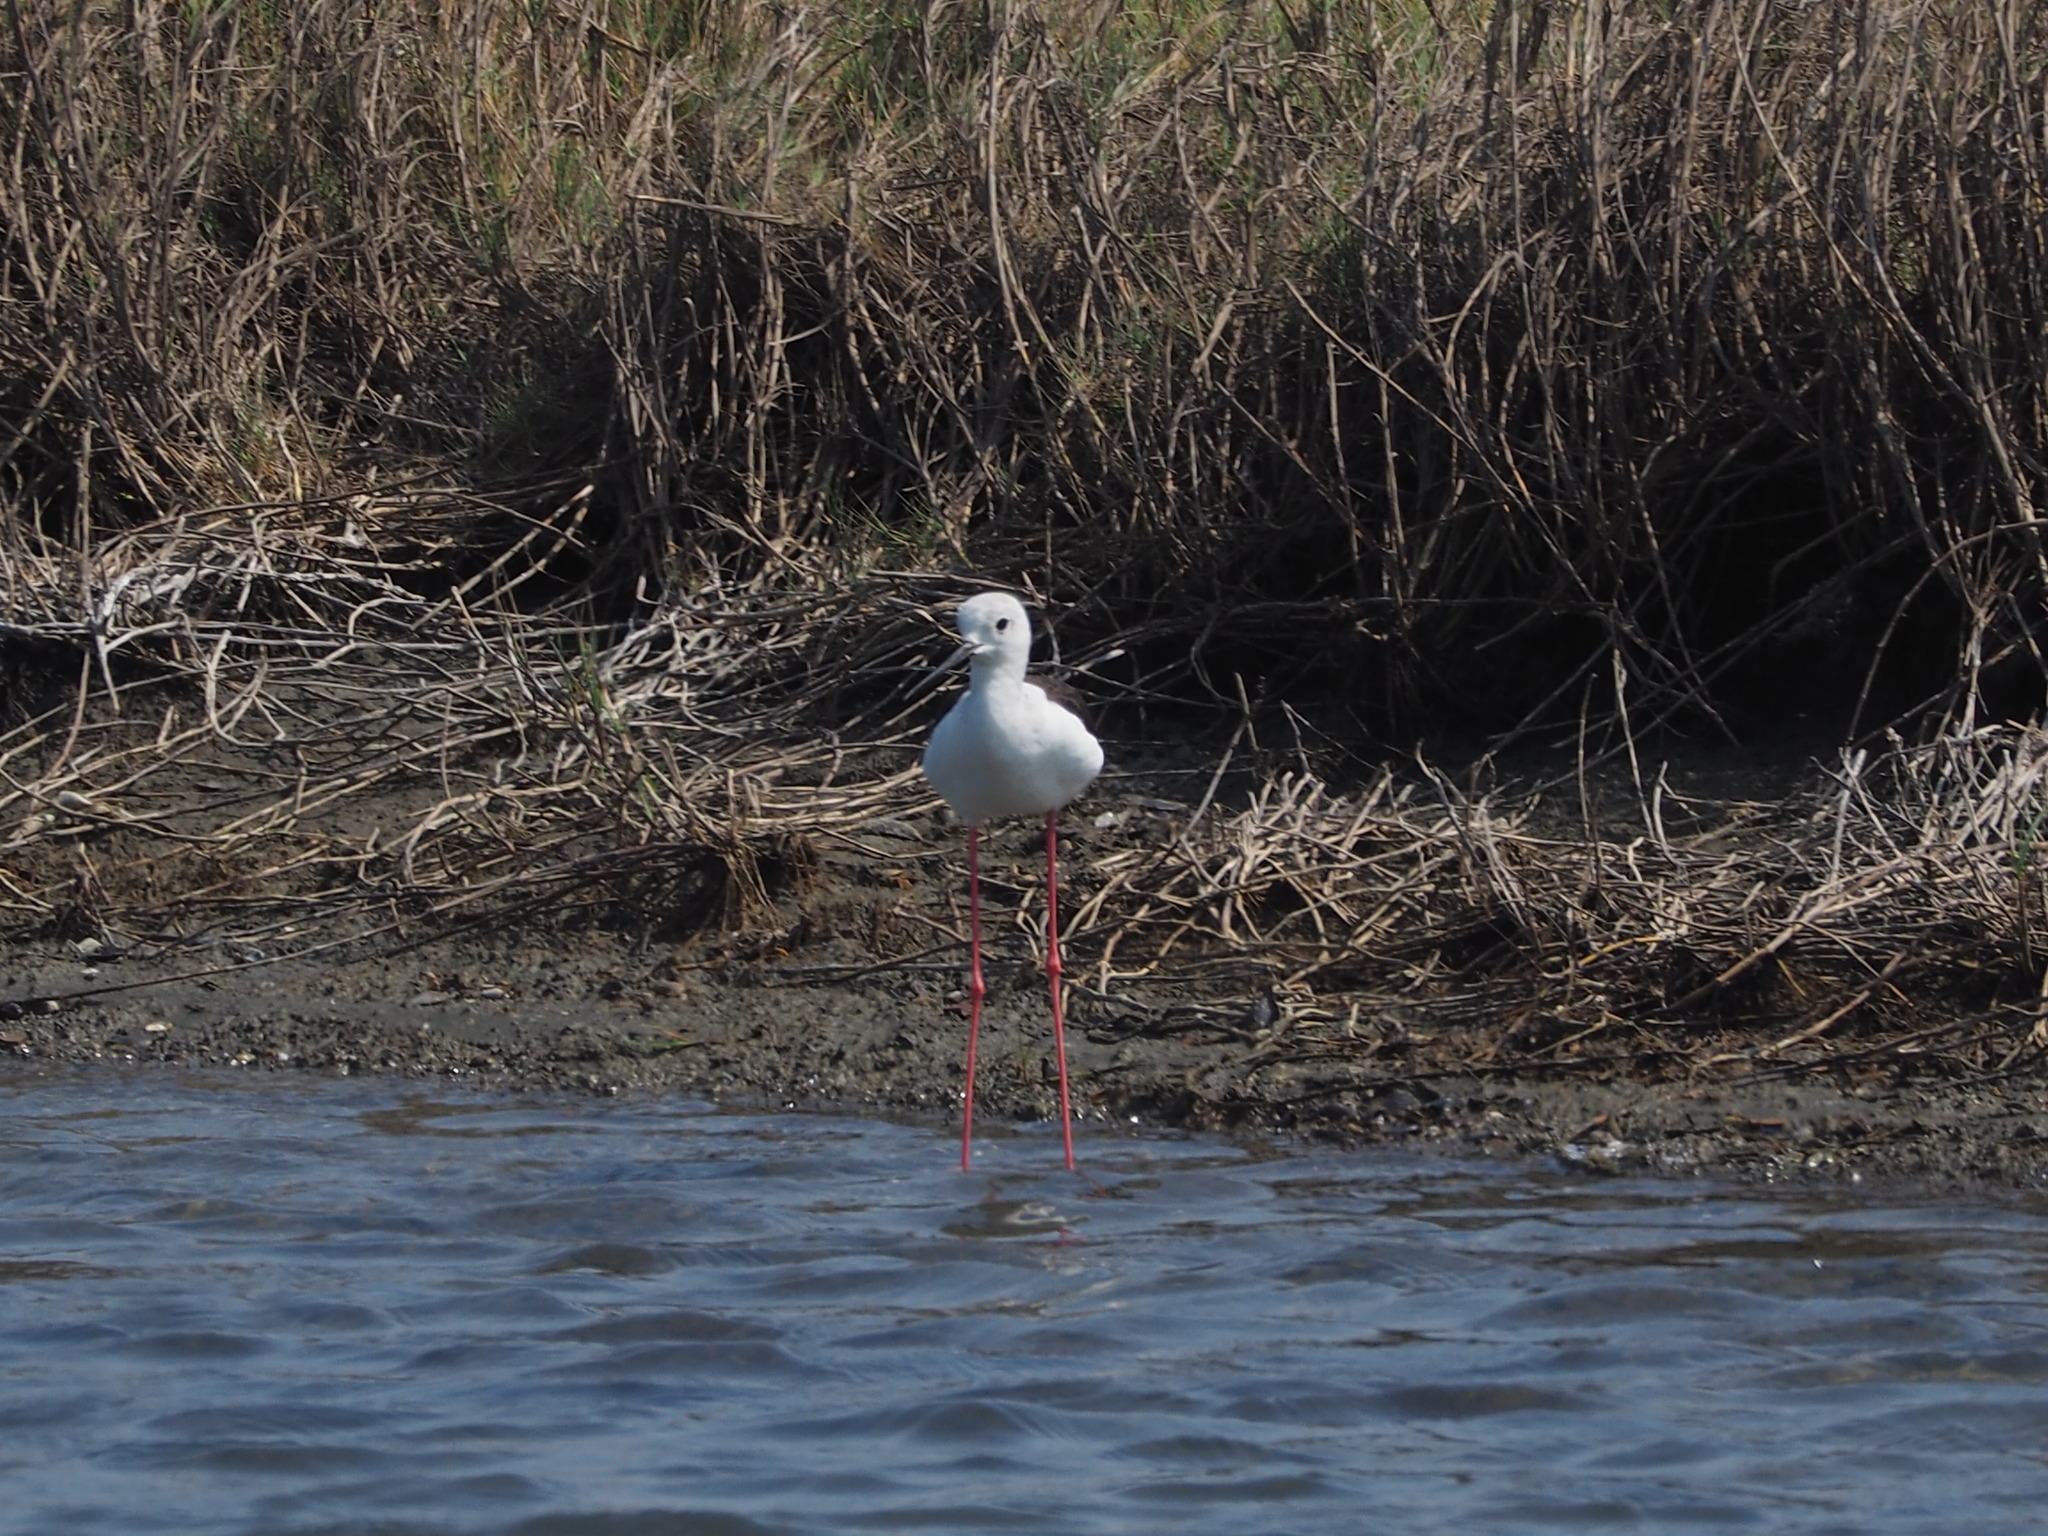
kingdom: Animalia
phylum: Chordata
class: Aves
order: Charadriiformes
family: Recurvirostridae
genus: Himantopus
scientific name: Himantopus himantopus
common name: Black-winged stilt
